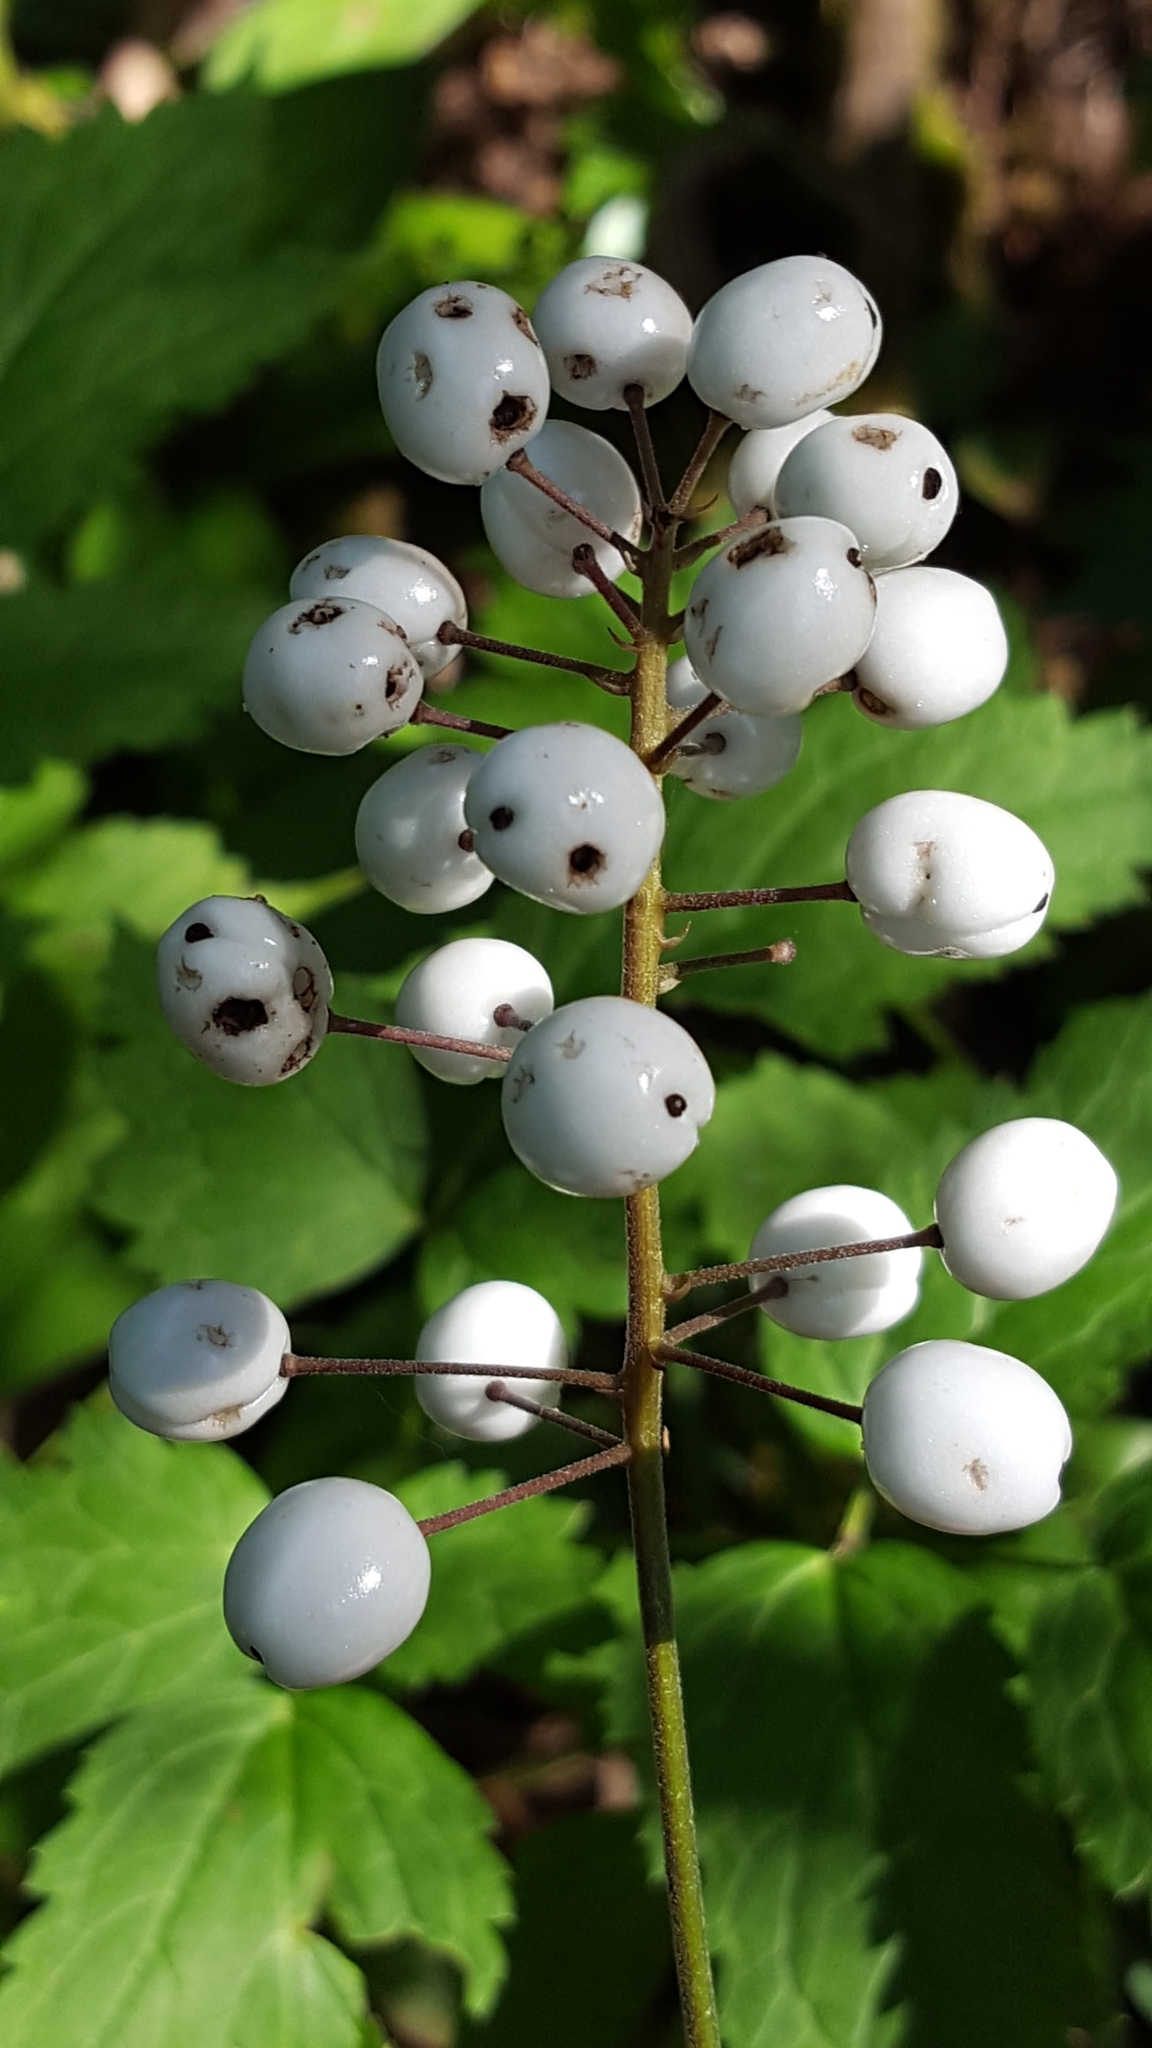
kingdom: Plantae
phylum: Tracheophyta
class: Magnoliopsida
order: Ranunculales
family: Ranunculaceae
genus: Actaea
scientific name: Actaea rubra
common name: Red baneberry
